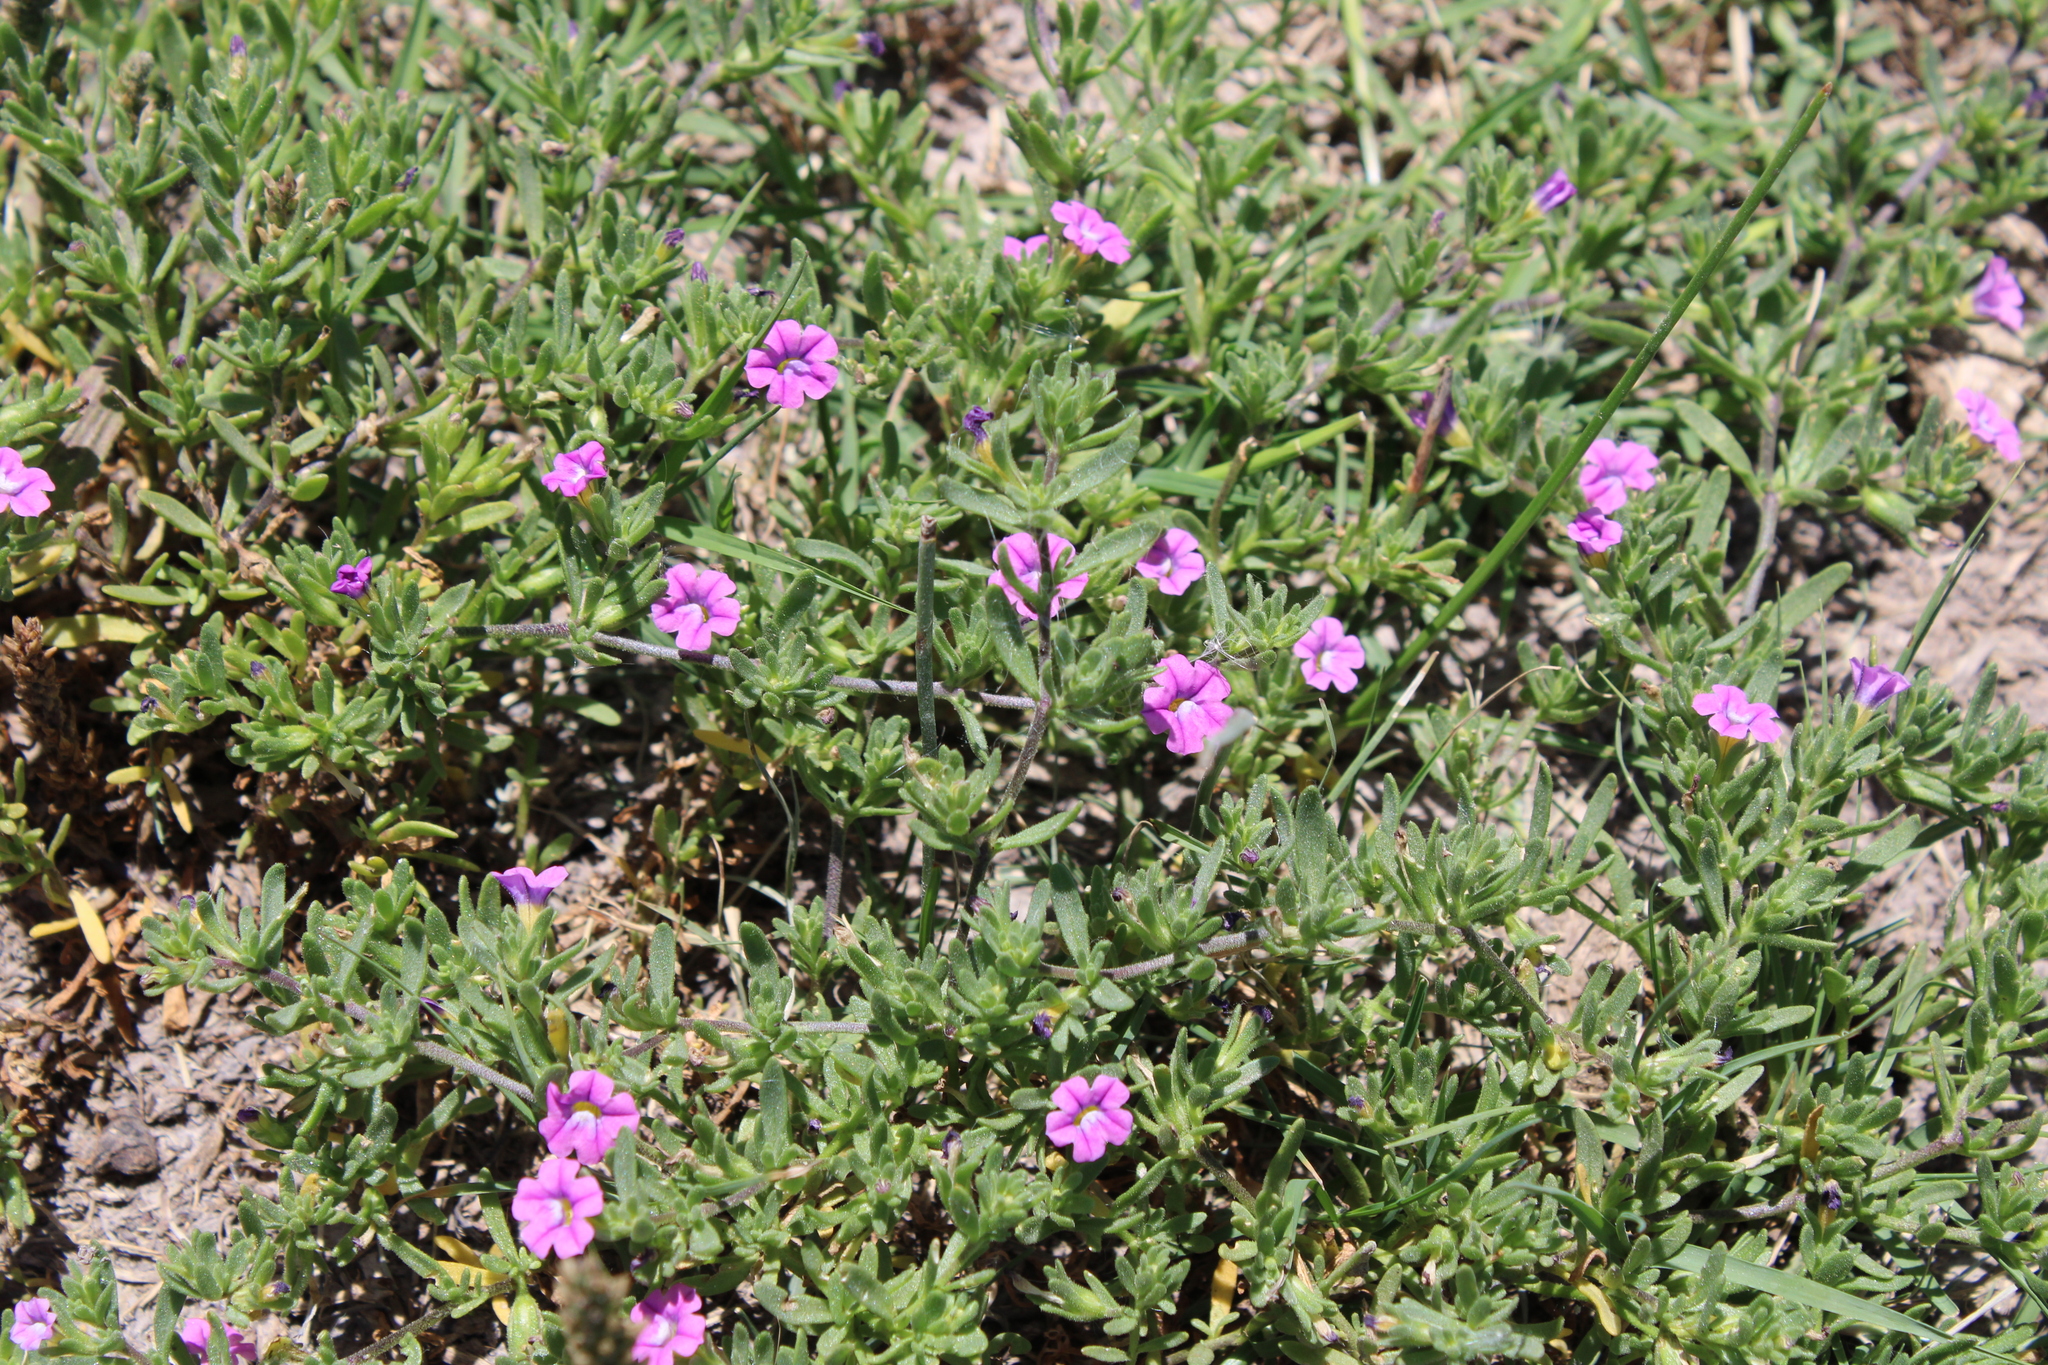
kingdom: Plantae
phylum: Tracheophyta
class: Magnoliopsida
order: Solanales
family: Solanaceae
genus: Calibrachoa
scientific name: Calibrachoa parviflora
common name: Seaside petunia
